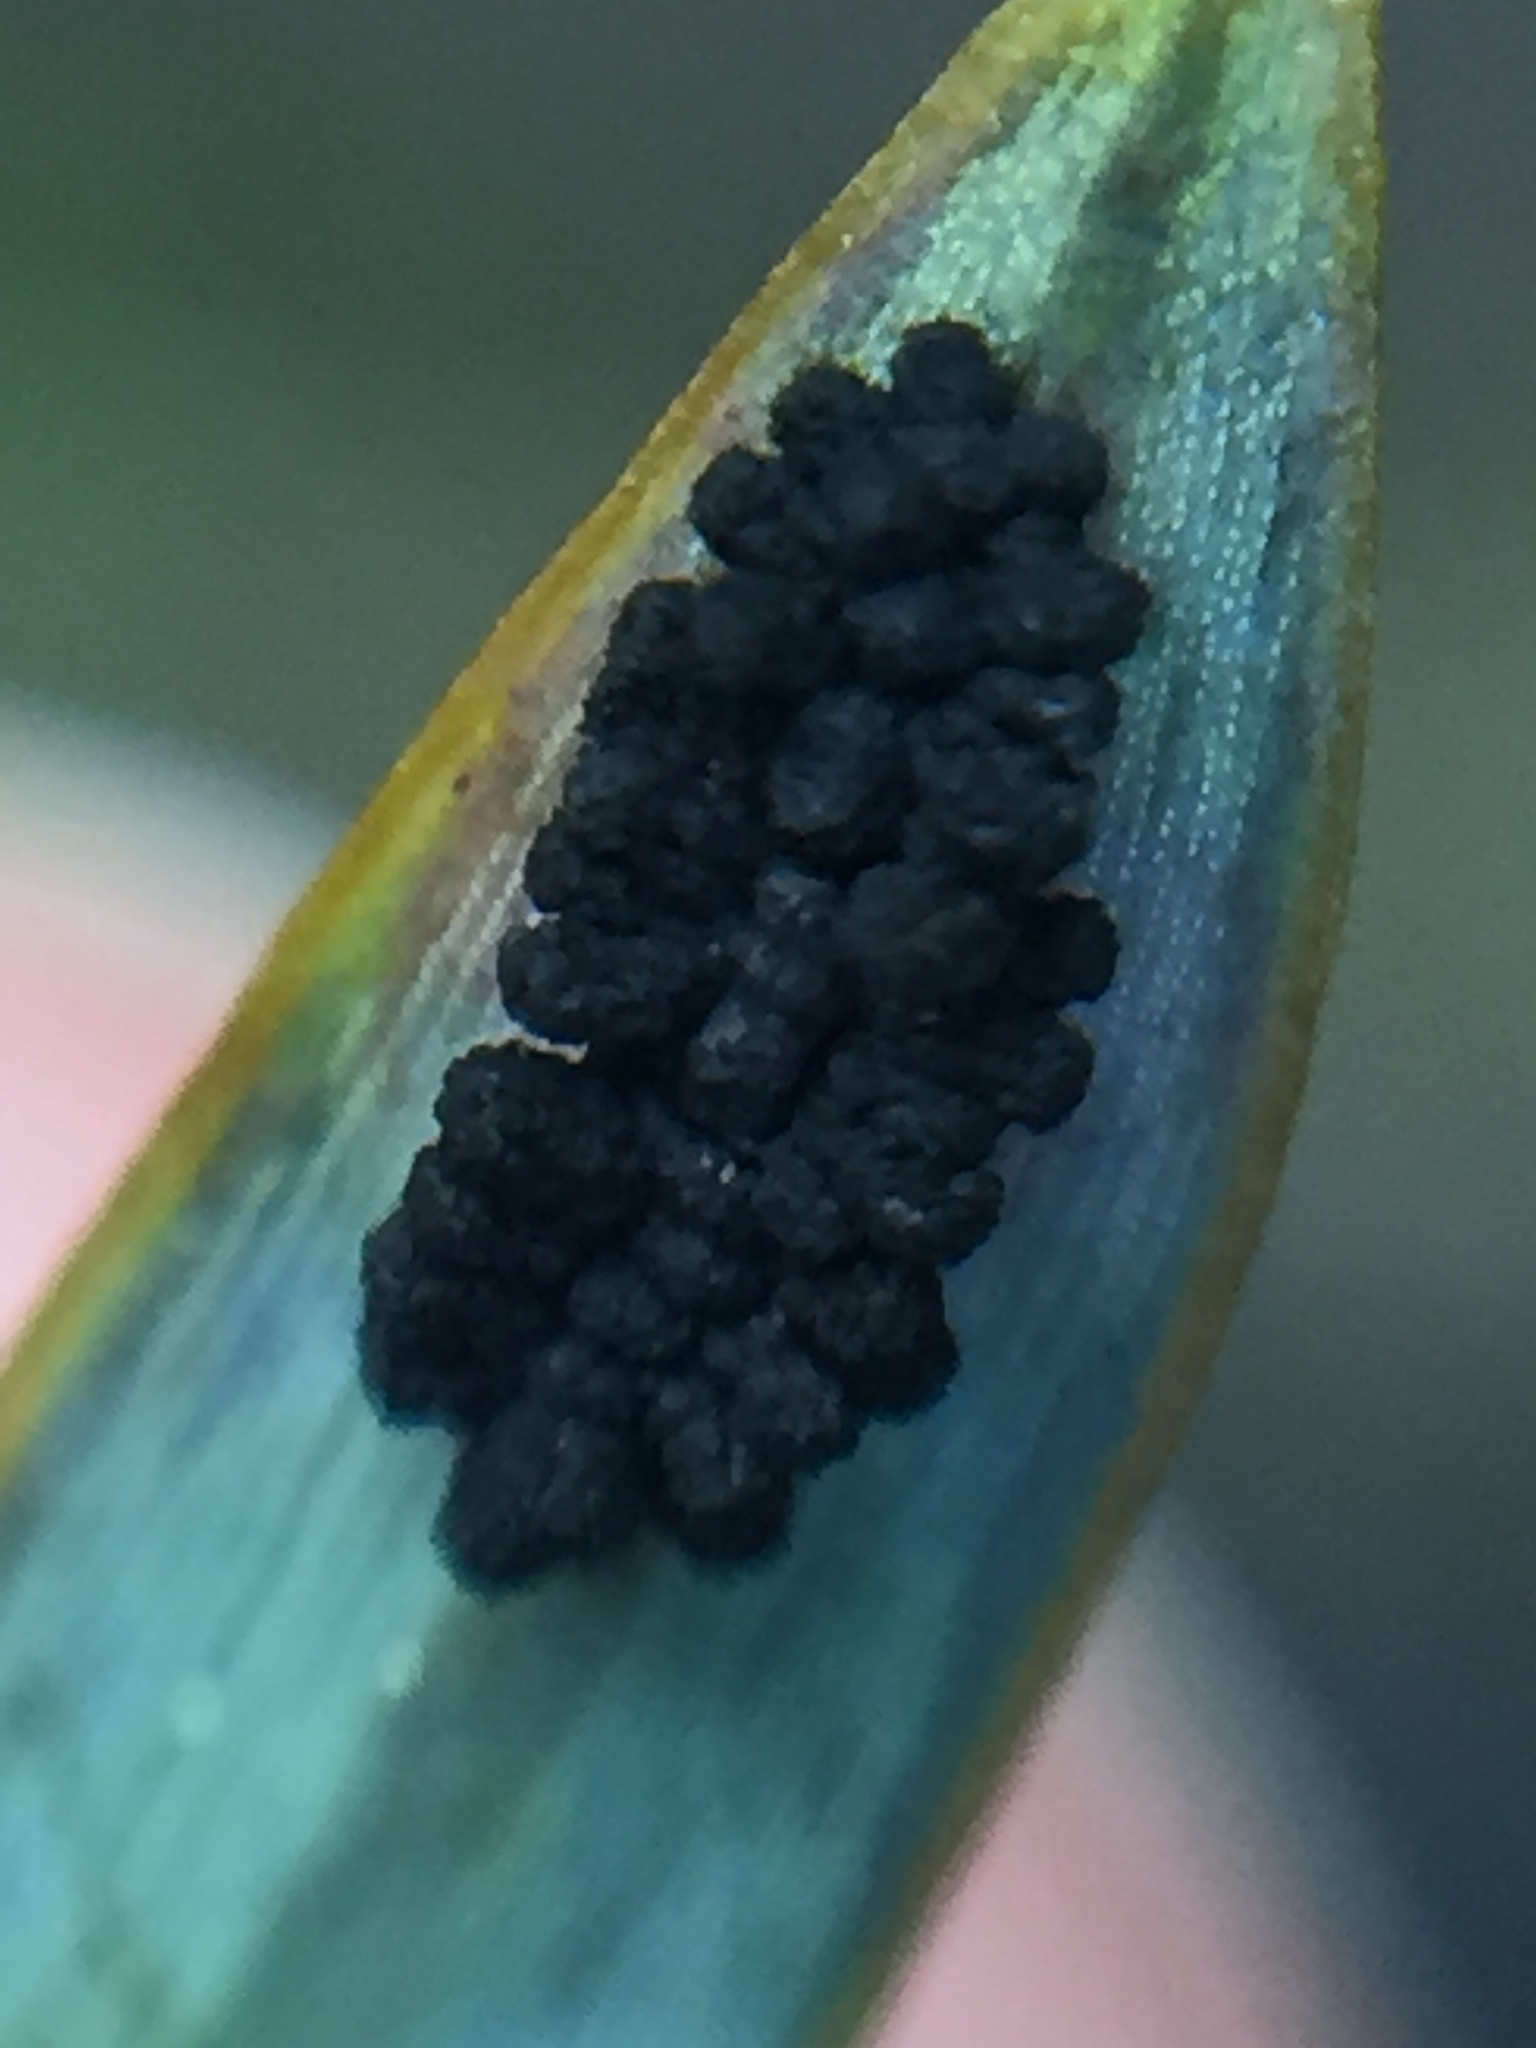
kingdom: Fungi
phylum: Ascomycota
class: Eurotiomycetes
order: Coryneliales
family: Coryneliaceae
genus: Corynelia
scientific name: Corynelia tropica
